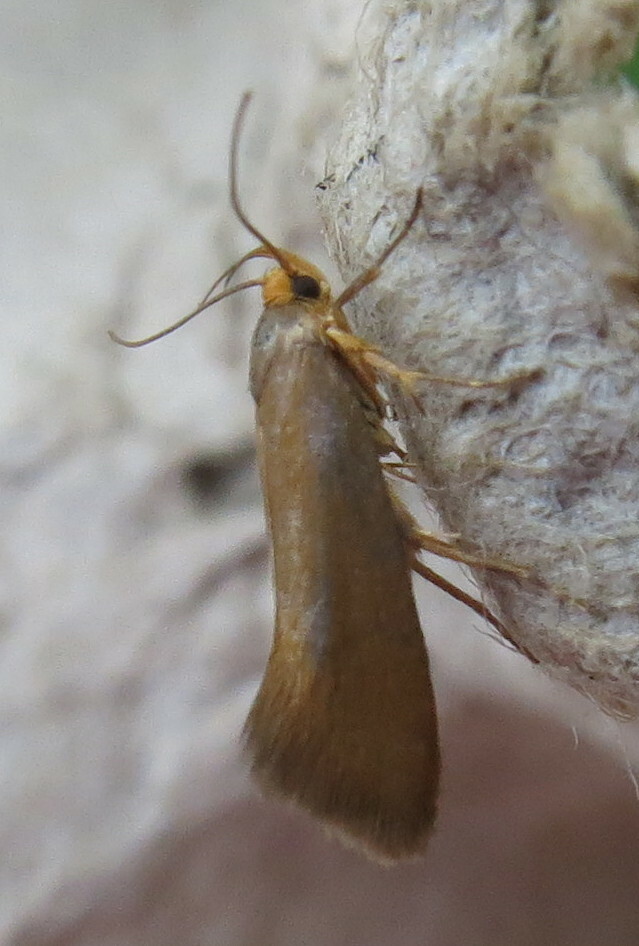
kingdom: Animalia
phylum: Arthropoda
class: Insecta
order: Lepidoptera
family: Oecophoridae
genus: Borkhausenia
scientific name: Borkhausenia Crassa unitella
